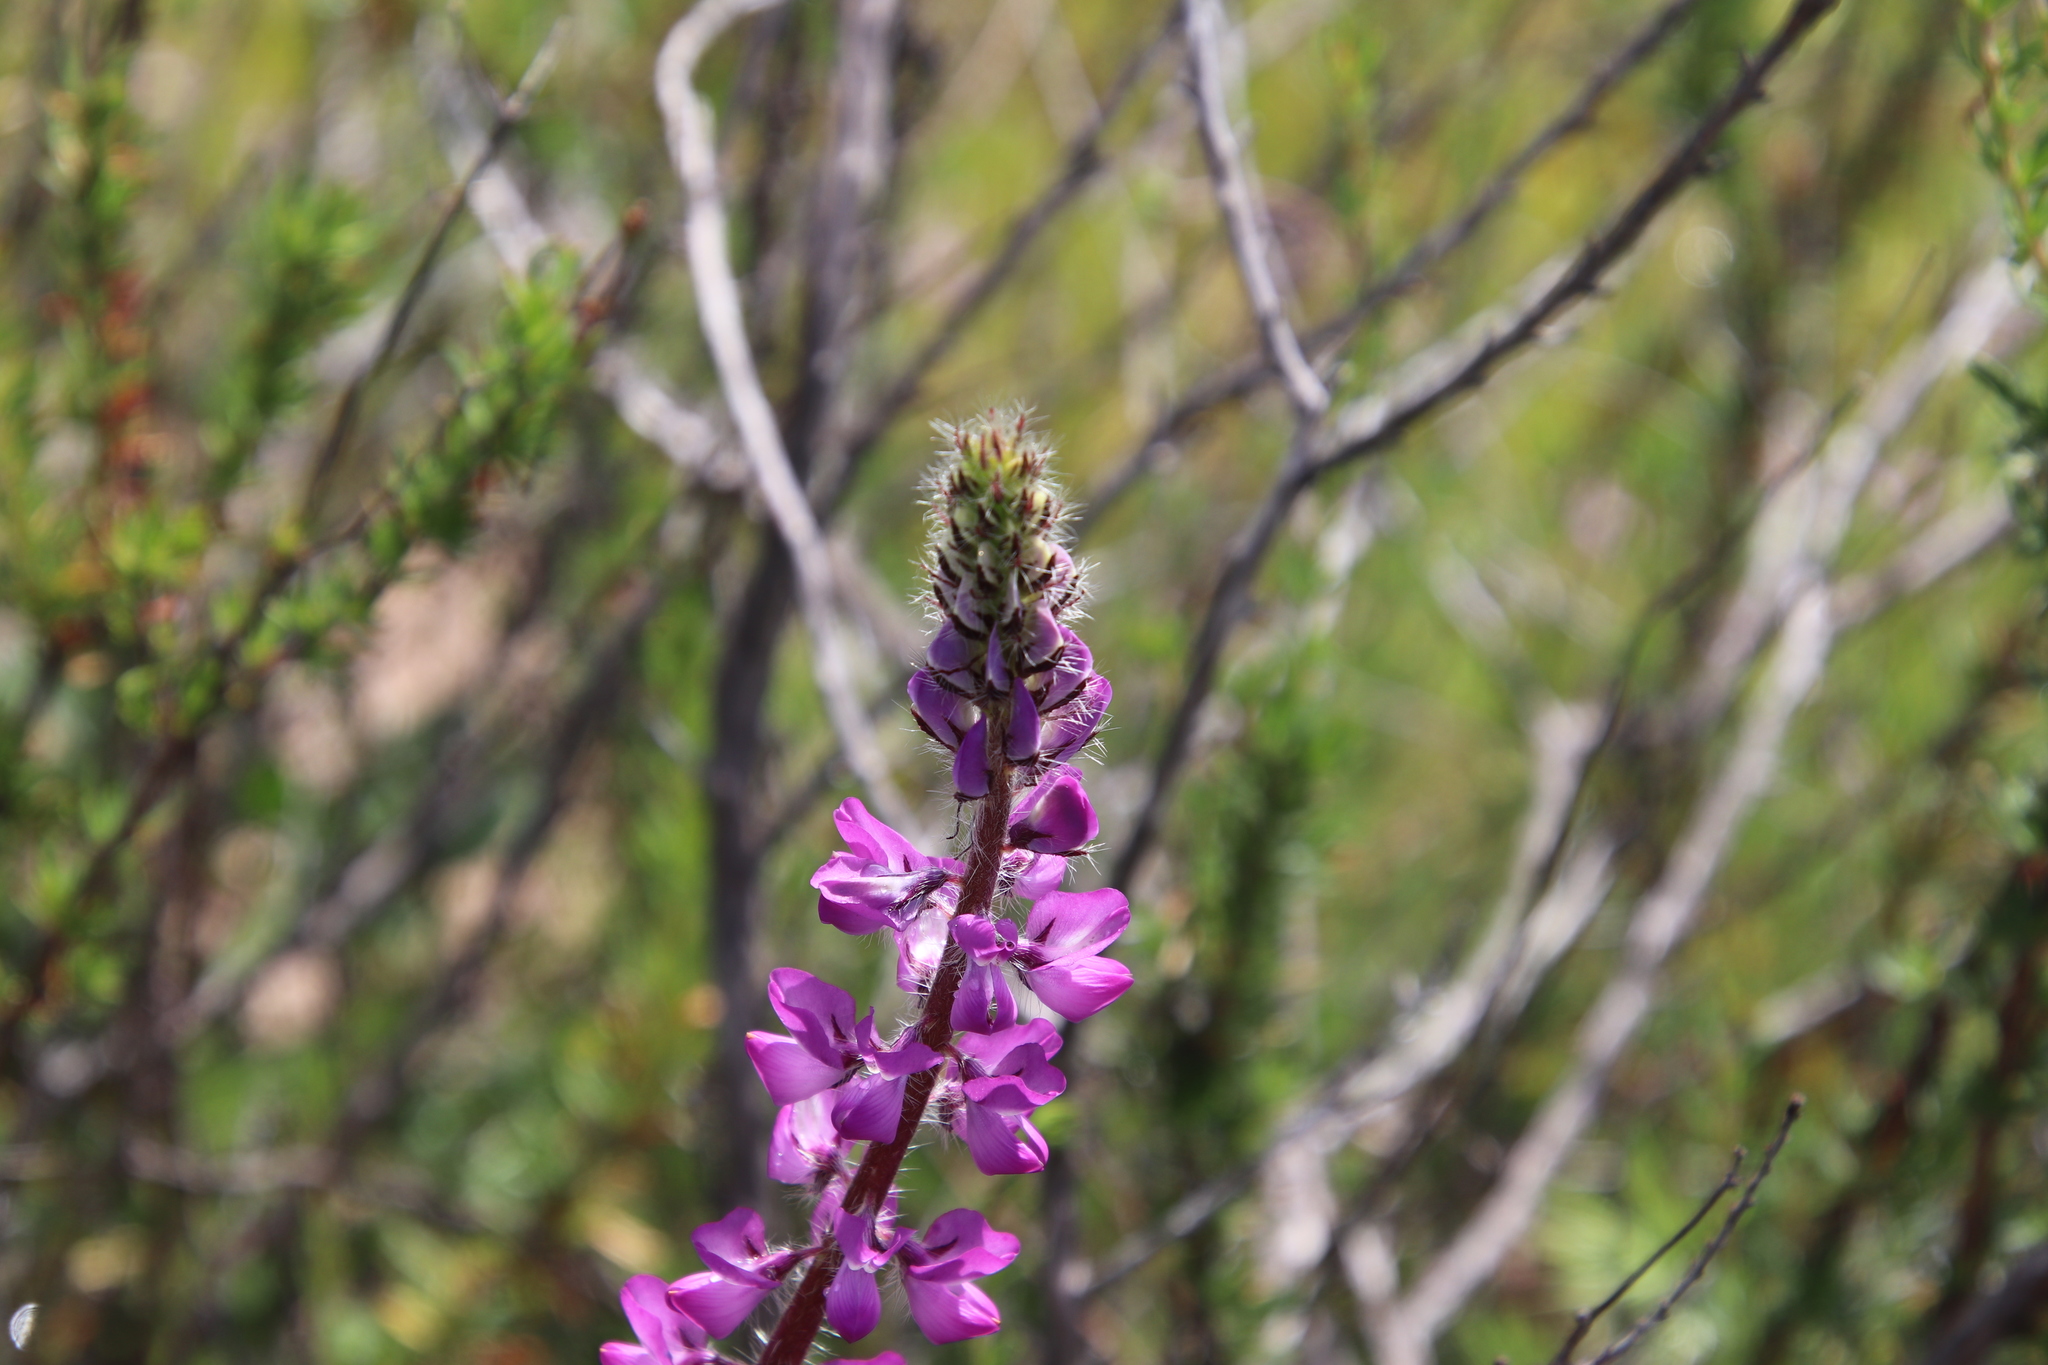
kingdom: Plantae
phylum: Tracheophyta
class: Magnoliopsida
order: Fabales
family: Fabaceae
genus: Lupinus
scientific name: Lupinus hirsutissimus
